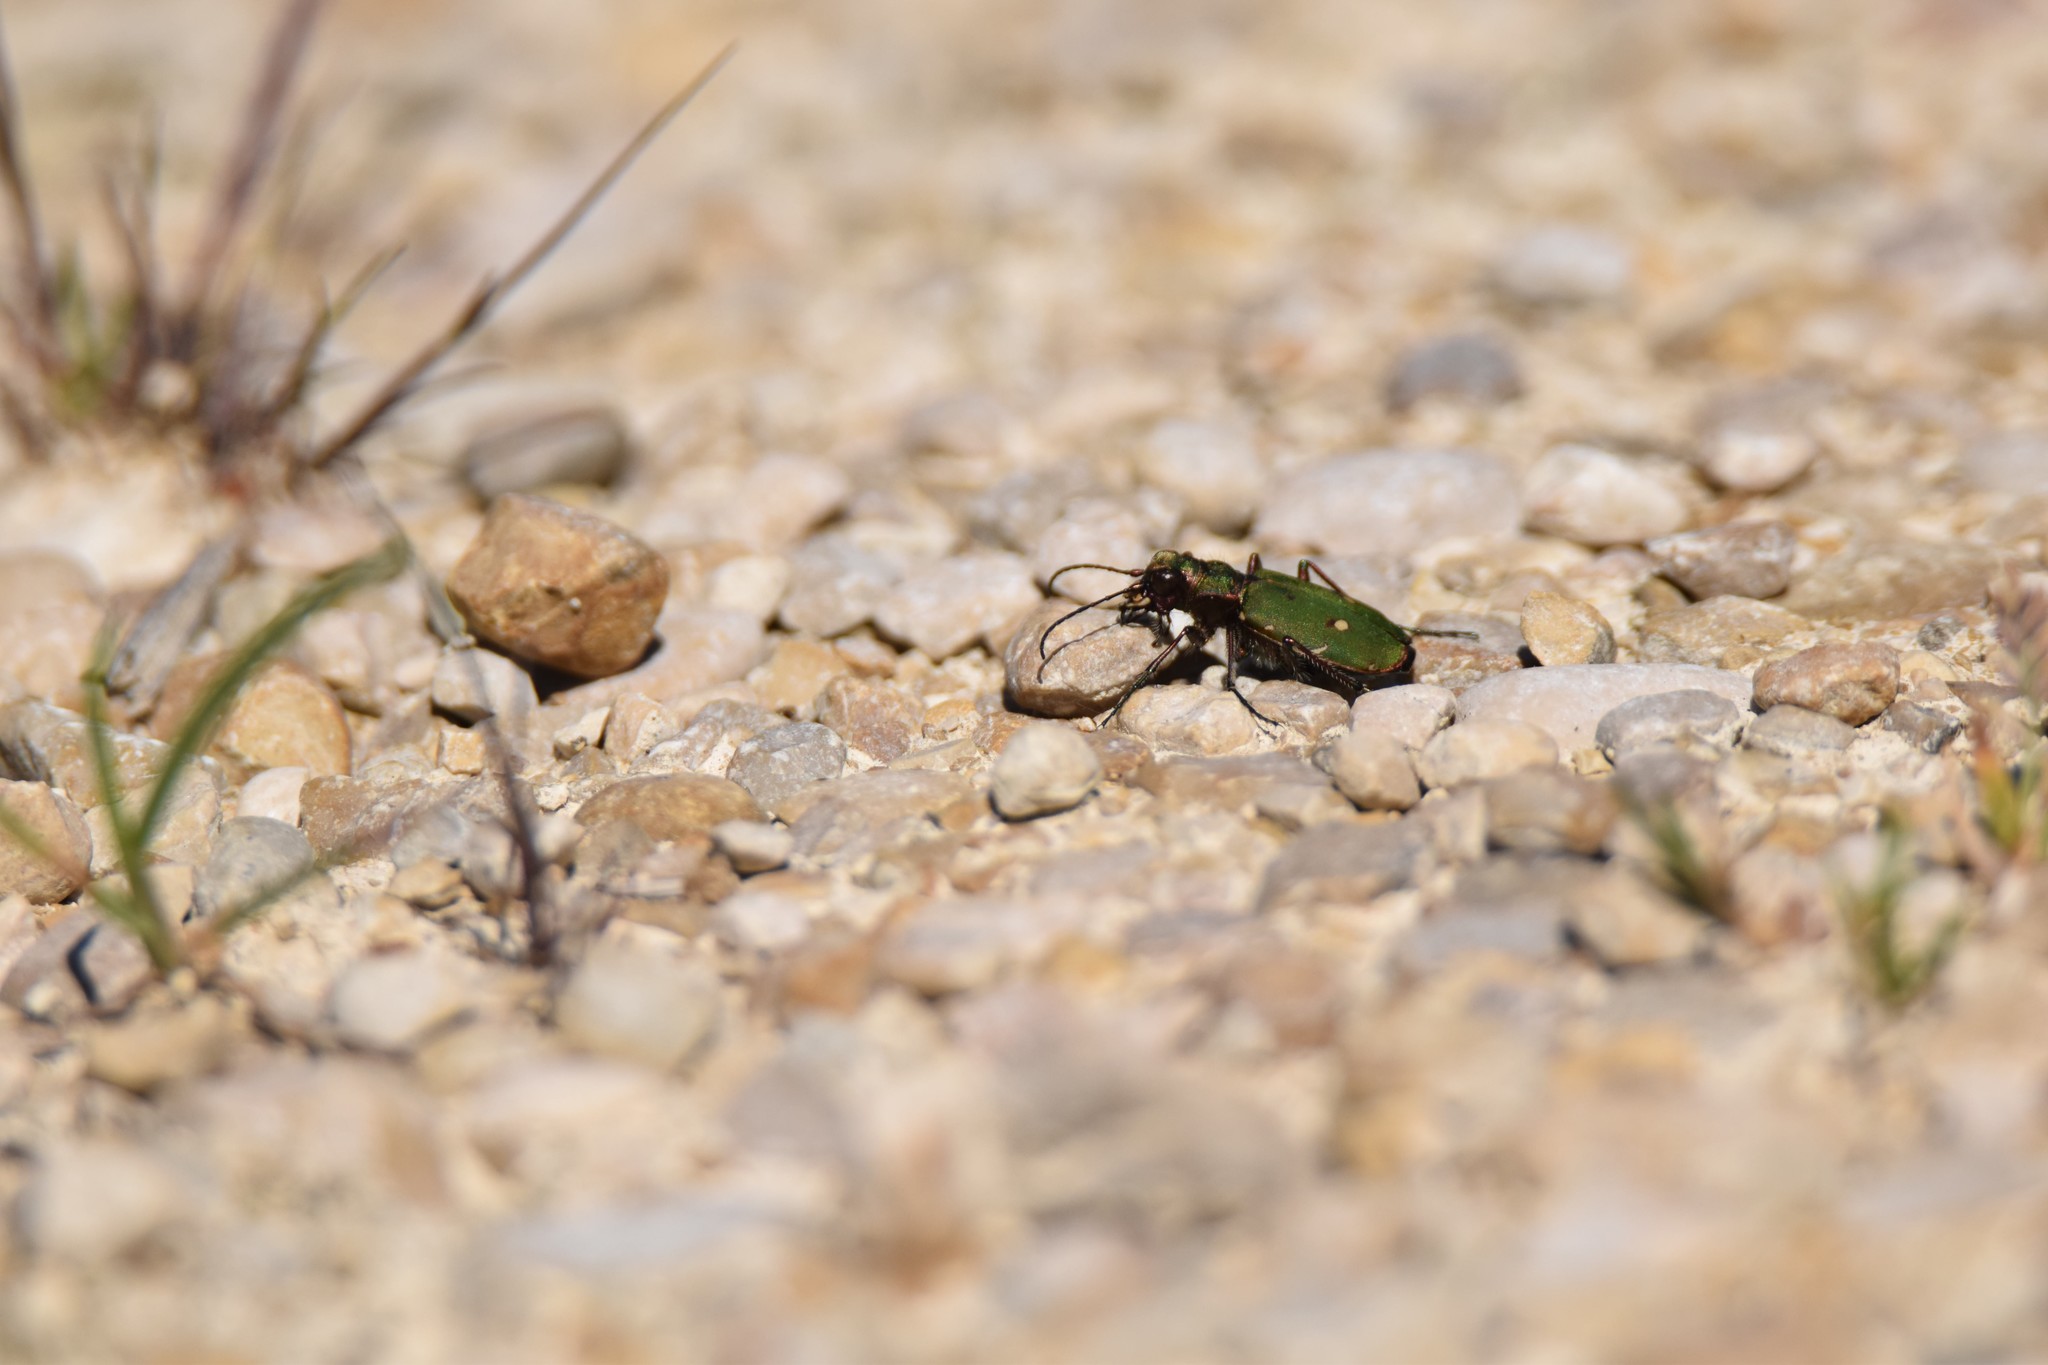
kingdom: Animalia
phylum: Arthropoda
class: Insecta
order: Coleoptera
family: Carabidae
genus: Cicindela
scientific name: Cicindela campestris
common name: Common tiger beetle
